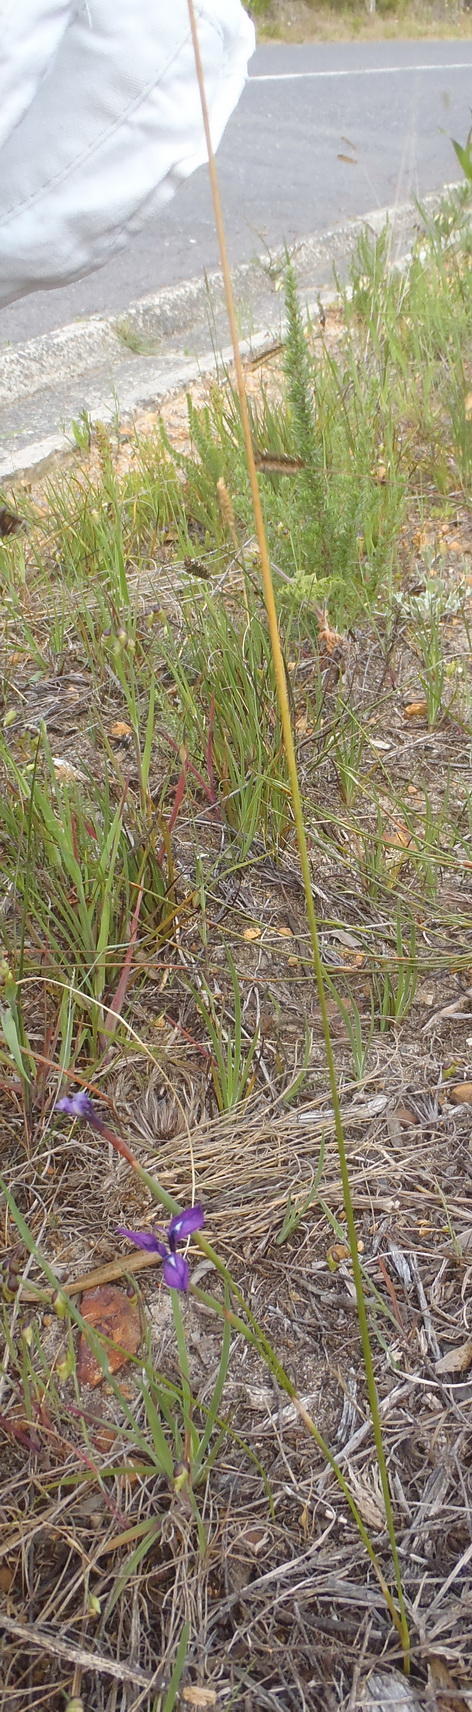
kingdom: Plantae
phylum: Tracheophyta
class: Liliopsida
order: Asparagales
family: Iridaceae
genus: Moraea
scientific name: Moraea tripetala
